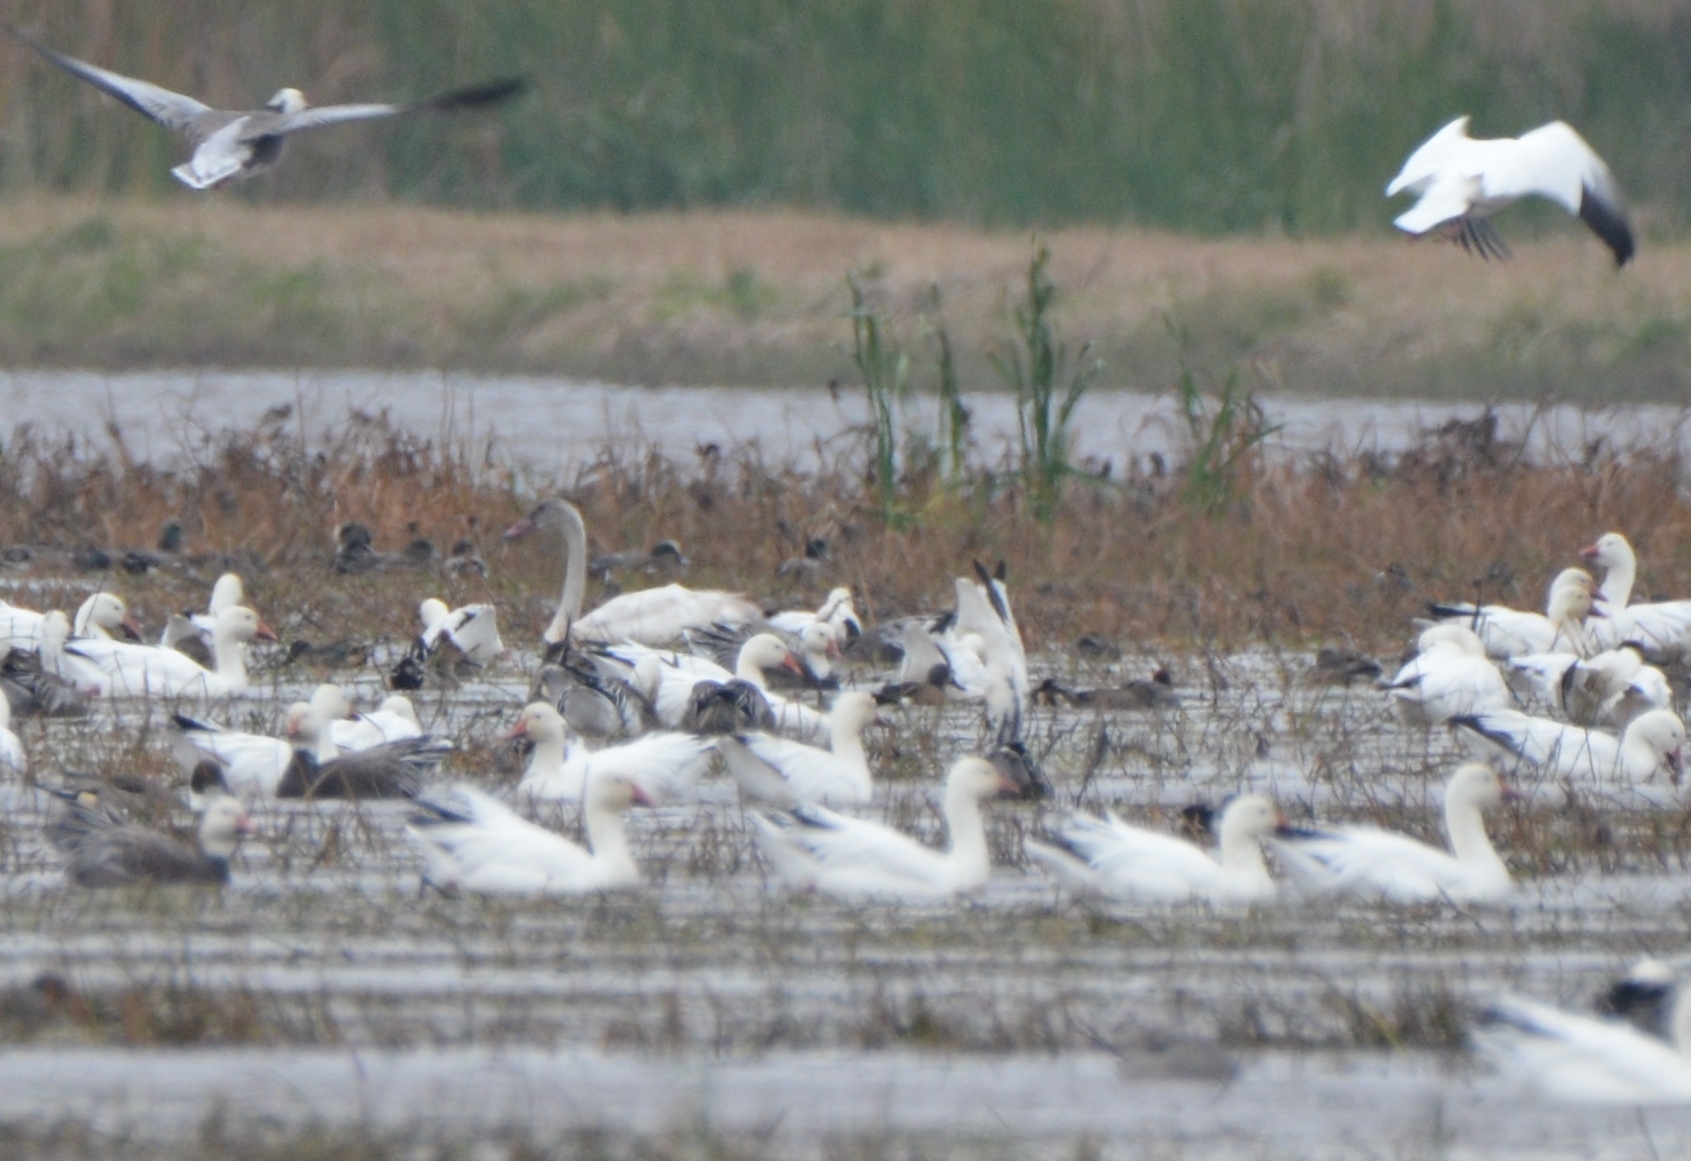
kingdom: Animalia
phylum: Chordata
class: Aves
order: Anseriformes
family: Anatidae
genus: Cygnus
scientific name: Cygnus columbianus
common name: Tundra swan
